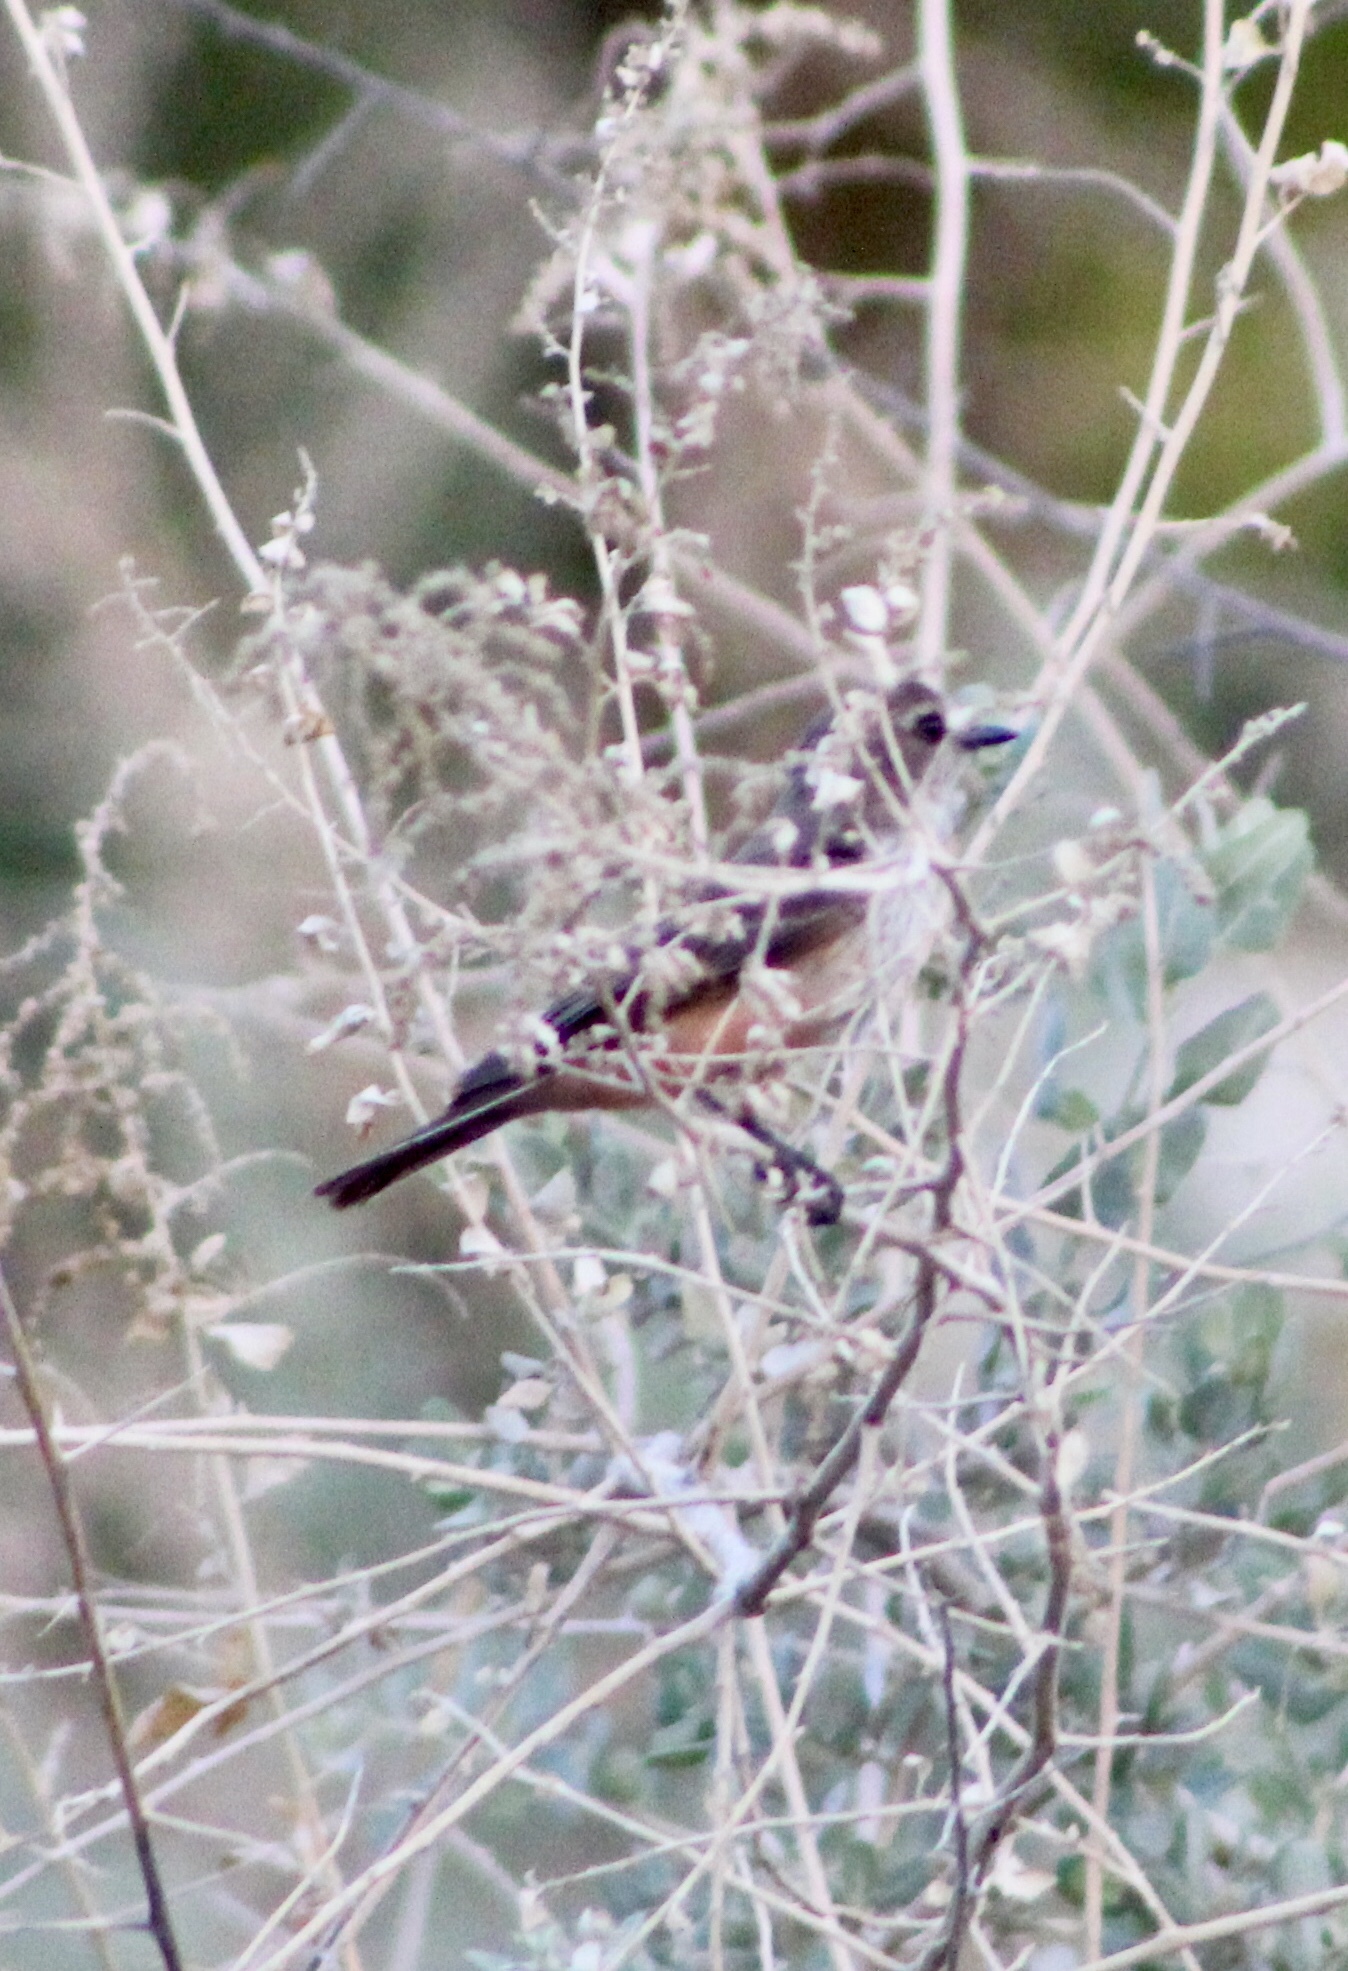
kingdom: Animalia
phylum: Chordata
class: Aves
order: Passeriformes
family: Tyrannidae
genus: Pyrocephalus
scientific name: Pyrocephalus rubinus
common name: Vermilion flycatcher
